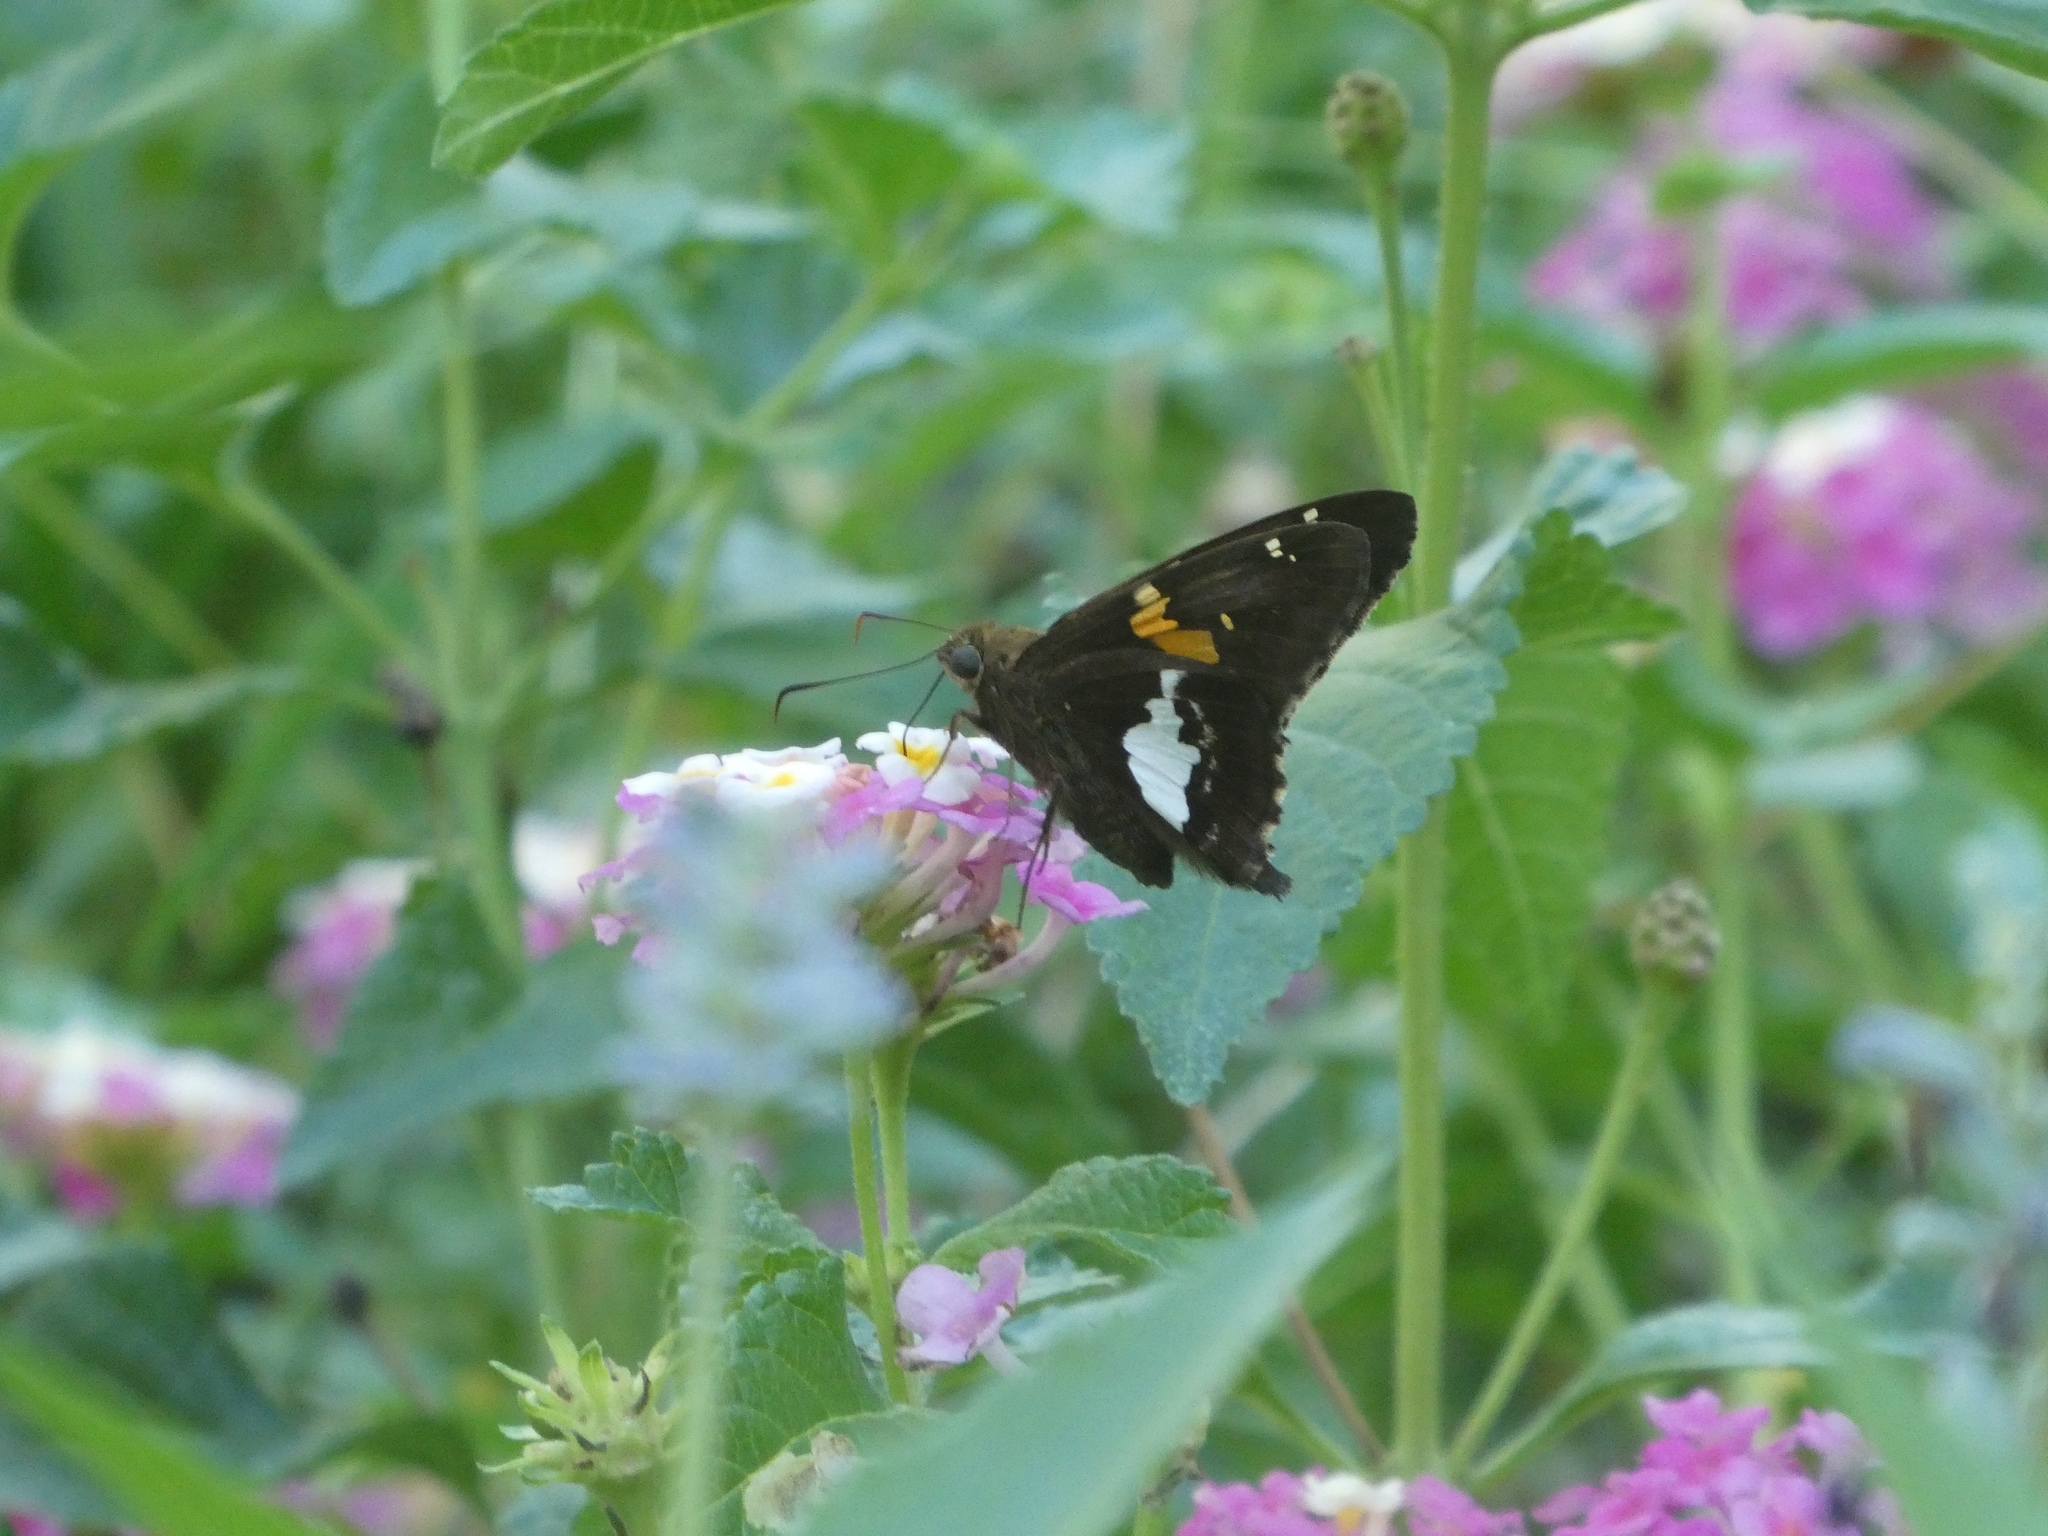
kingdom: Animalia
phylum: Arthropoda
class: Insecta
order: Lepidoptera
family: Hesperiidae
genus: Epargyreus
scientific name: Epargyreus clarus
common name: Silver-spotted skipper
